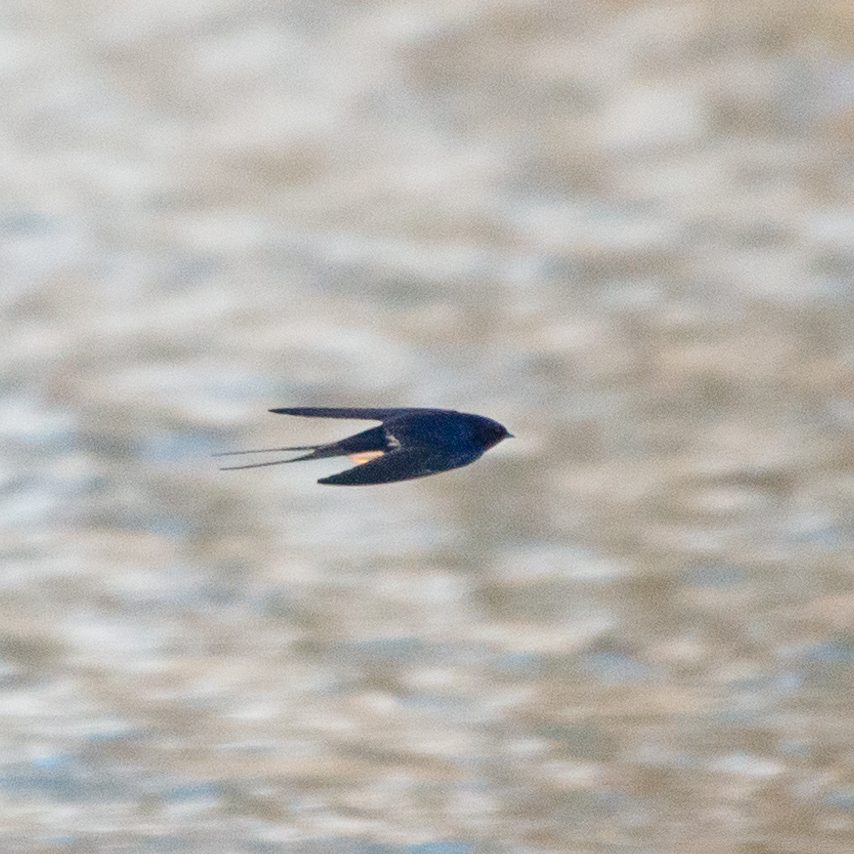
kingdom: Animalia
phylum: Chordata
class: Aves
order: Passeriformes
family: Hirundinidae
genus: Hirundo
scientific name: Hirundo rustica
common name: Barn swallow
